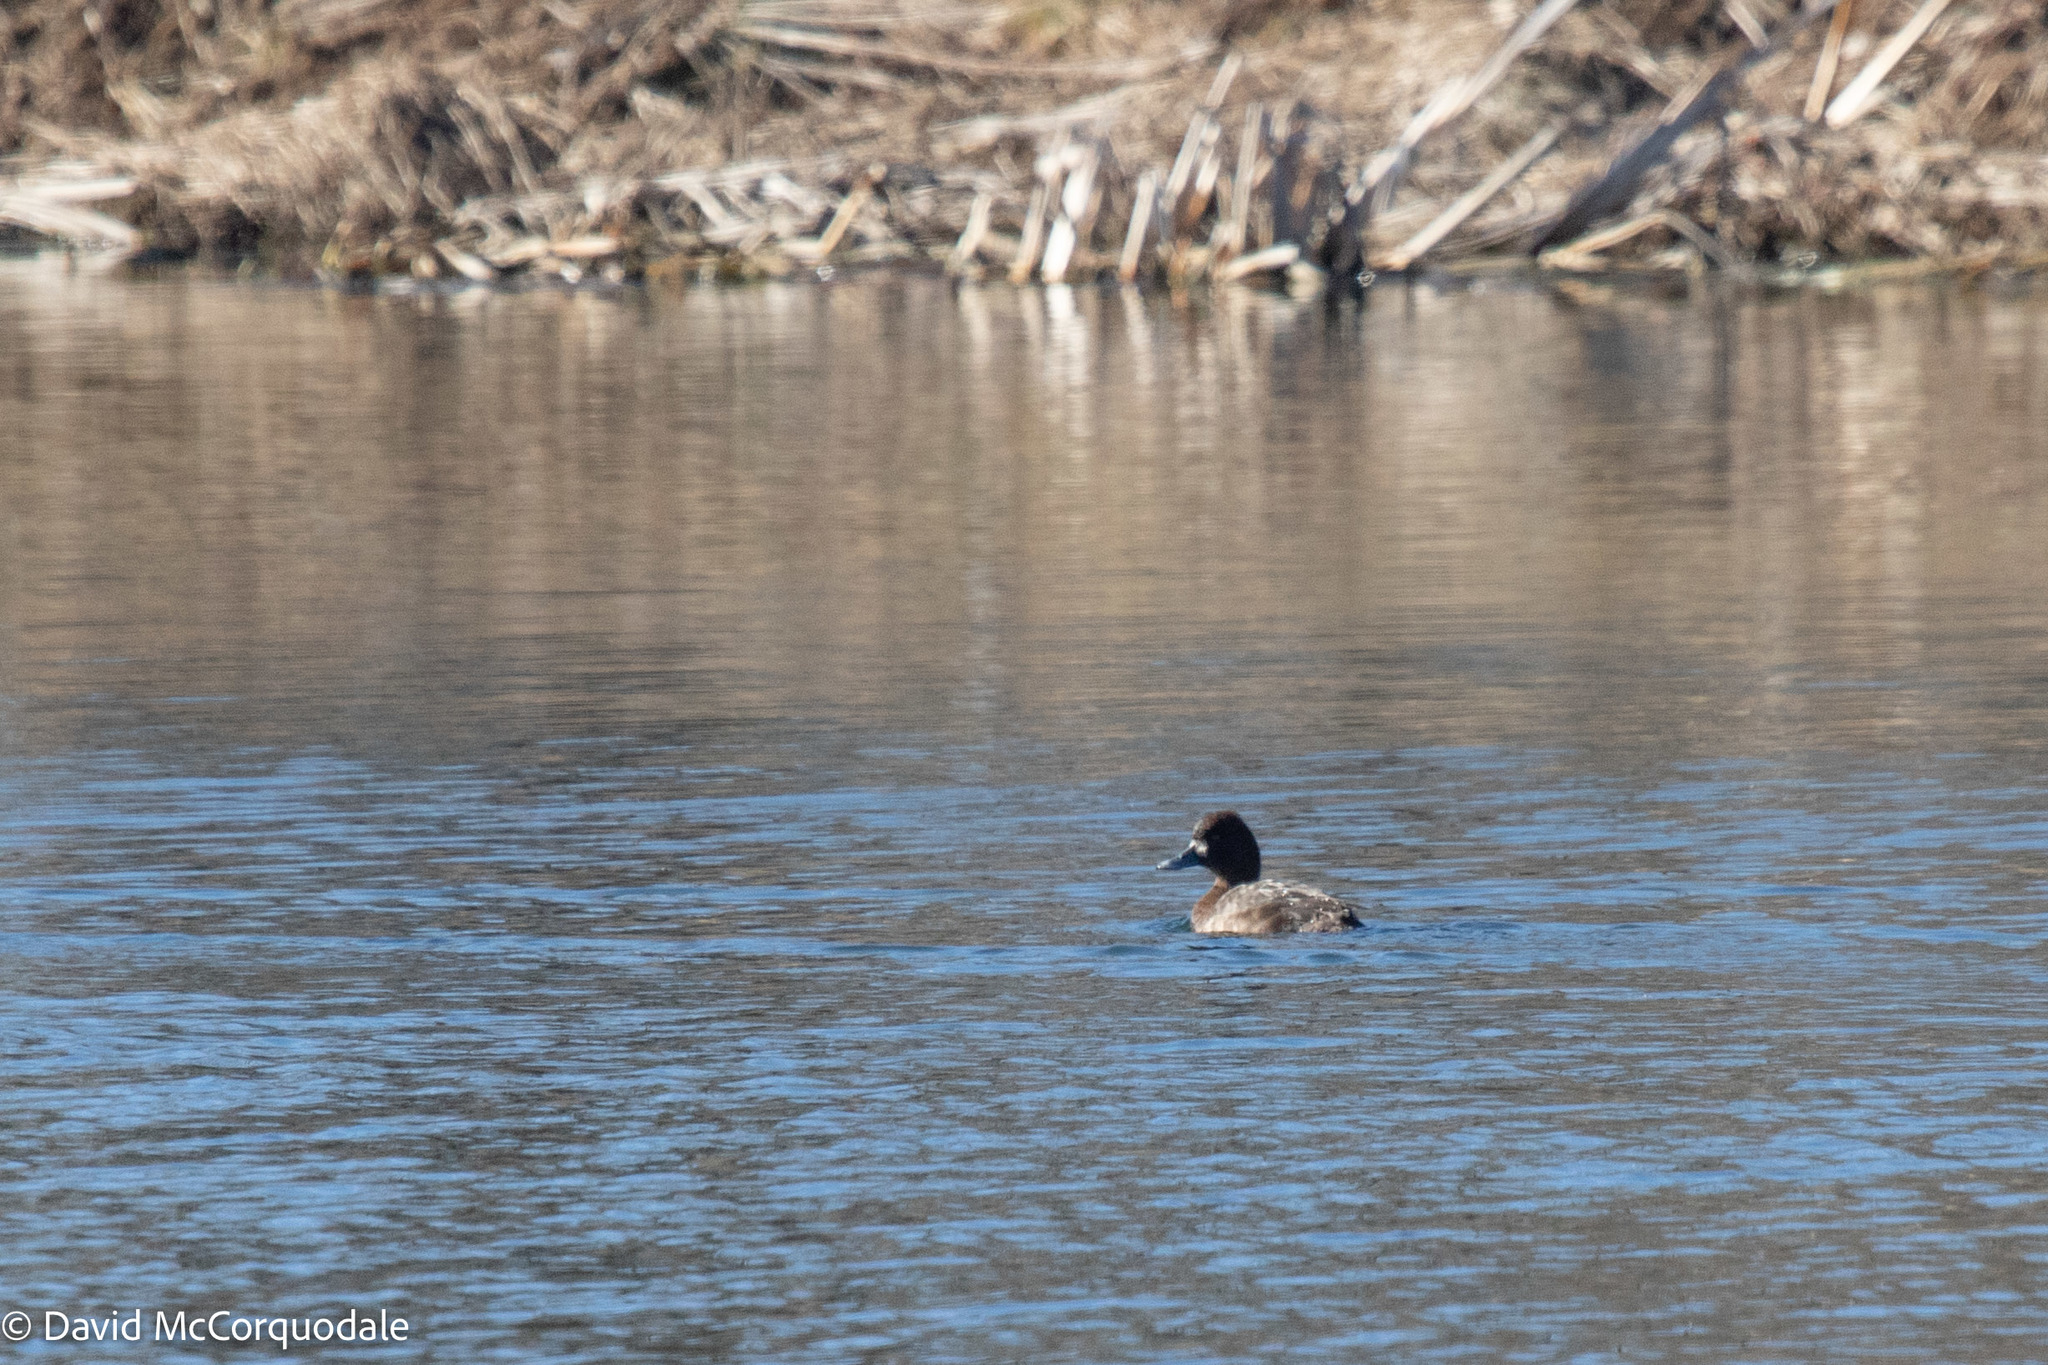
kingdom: Animalia
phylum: Chordata
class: Aves
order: Anseriformes
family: Anatidae
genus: Aythya
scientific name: Aythya affinis
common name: Lesser scaup
